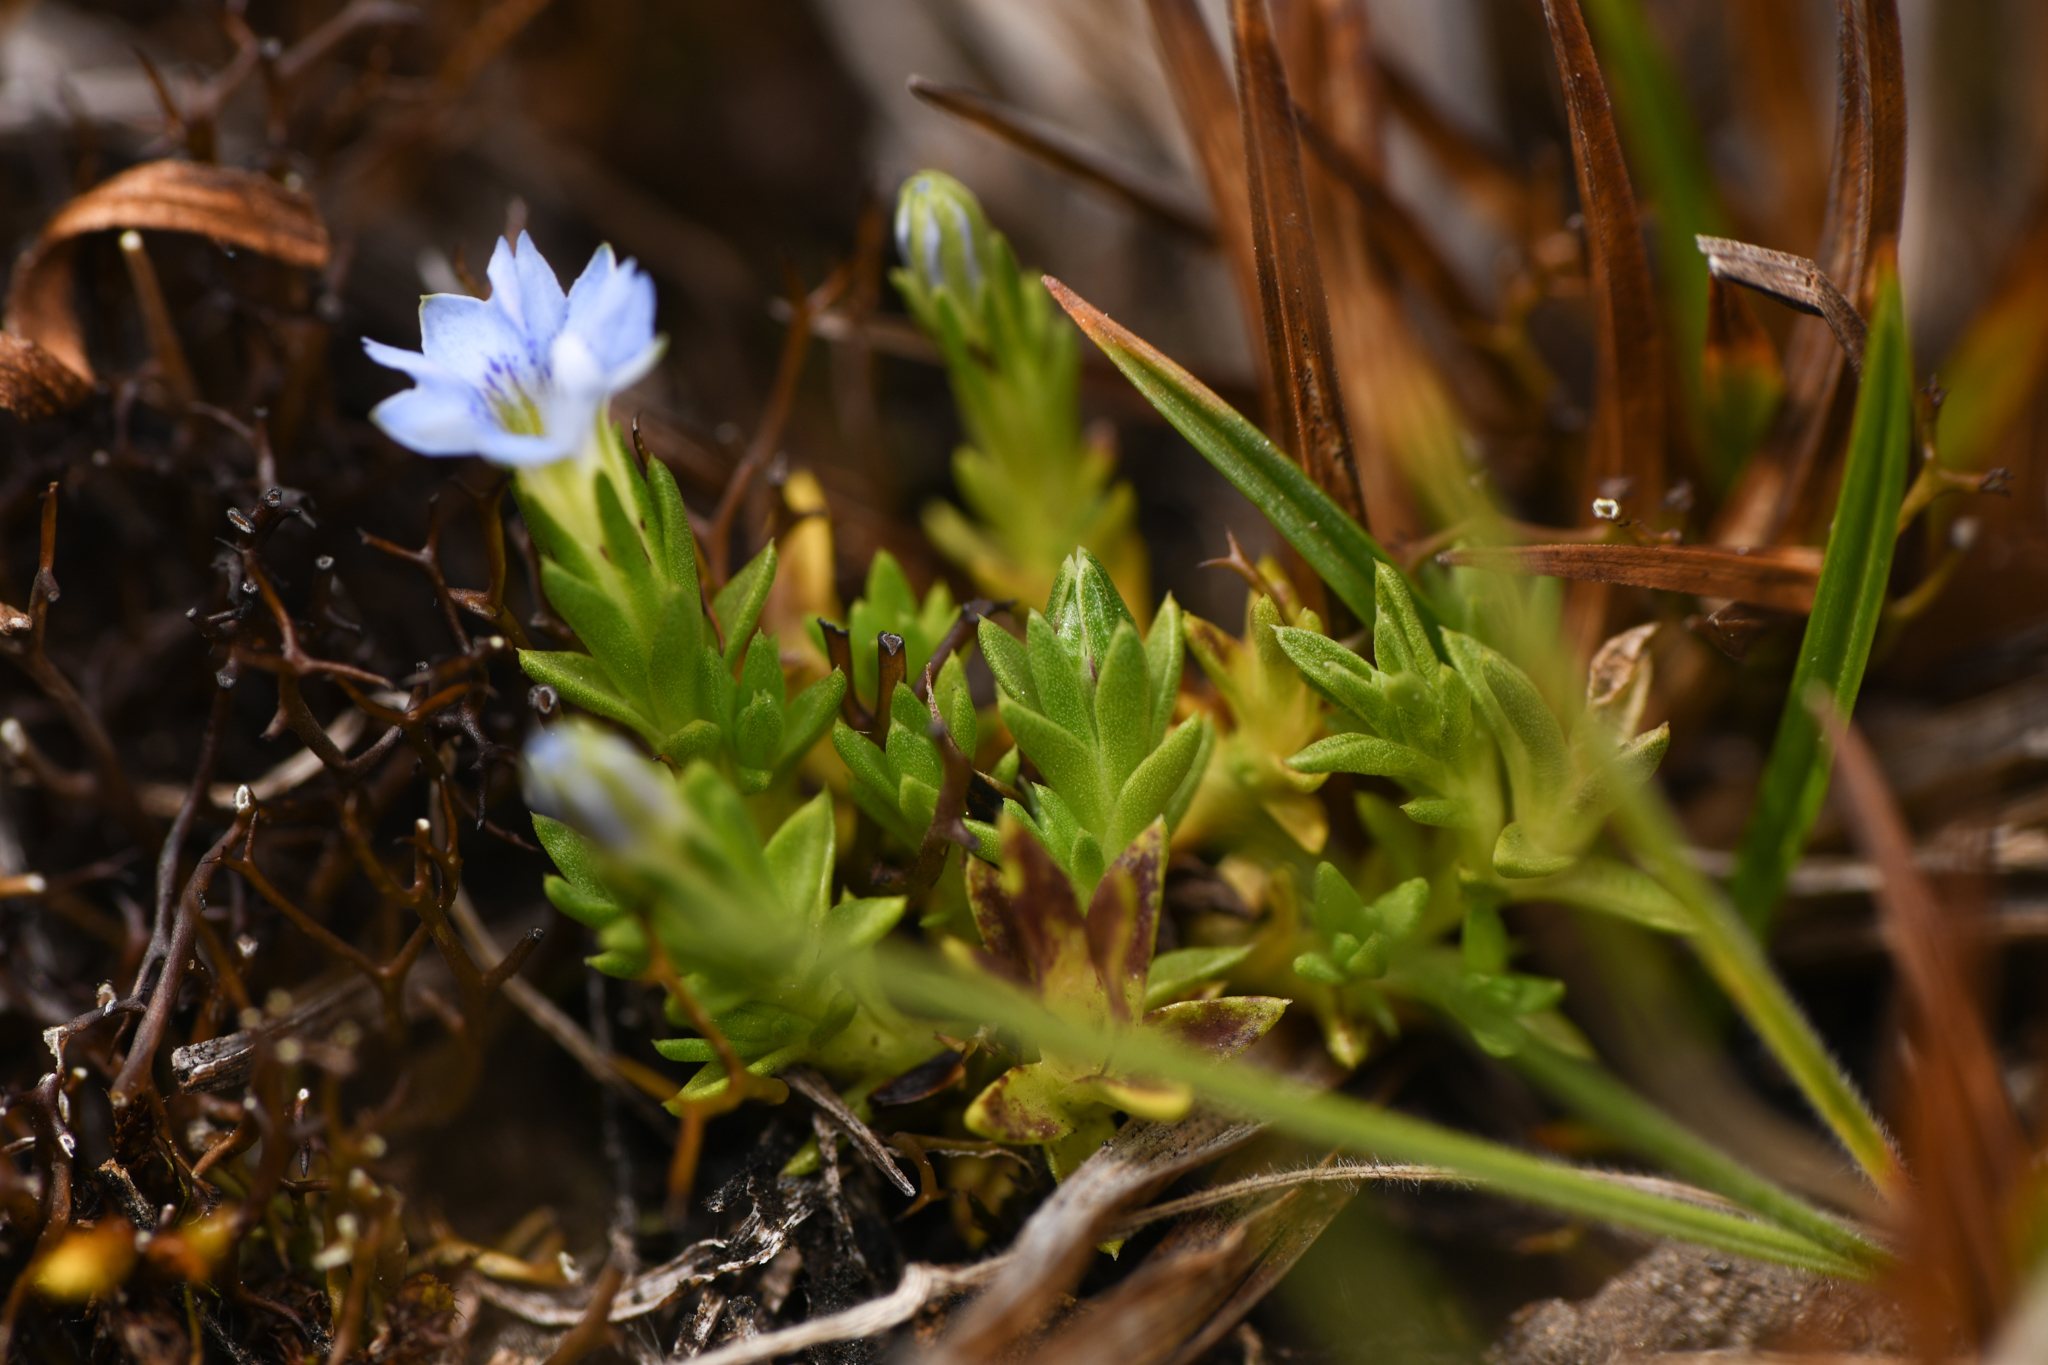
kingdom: Plantae
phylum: Tracheophyta
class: Magnoliopsida
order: Gentianales
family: Gentianaceae
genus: Gentiana
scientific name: Gentiana sedifolia
